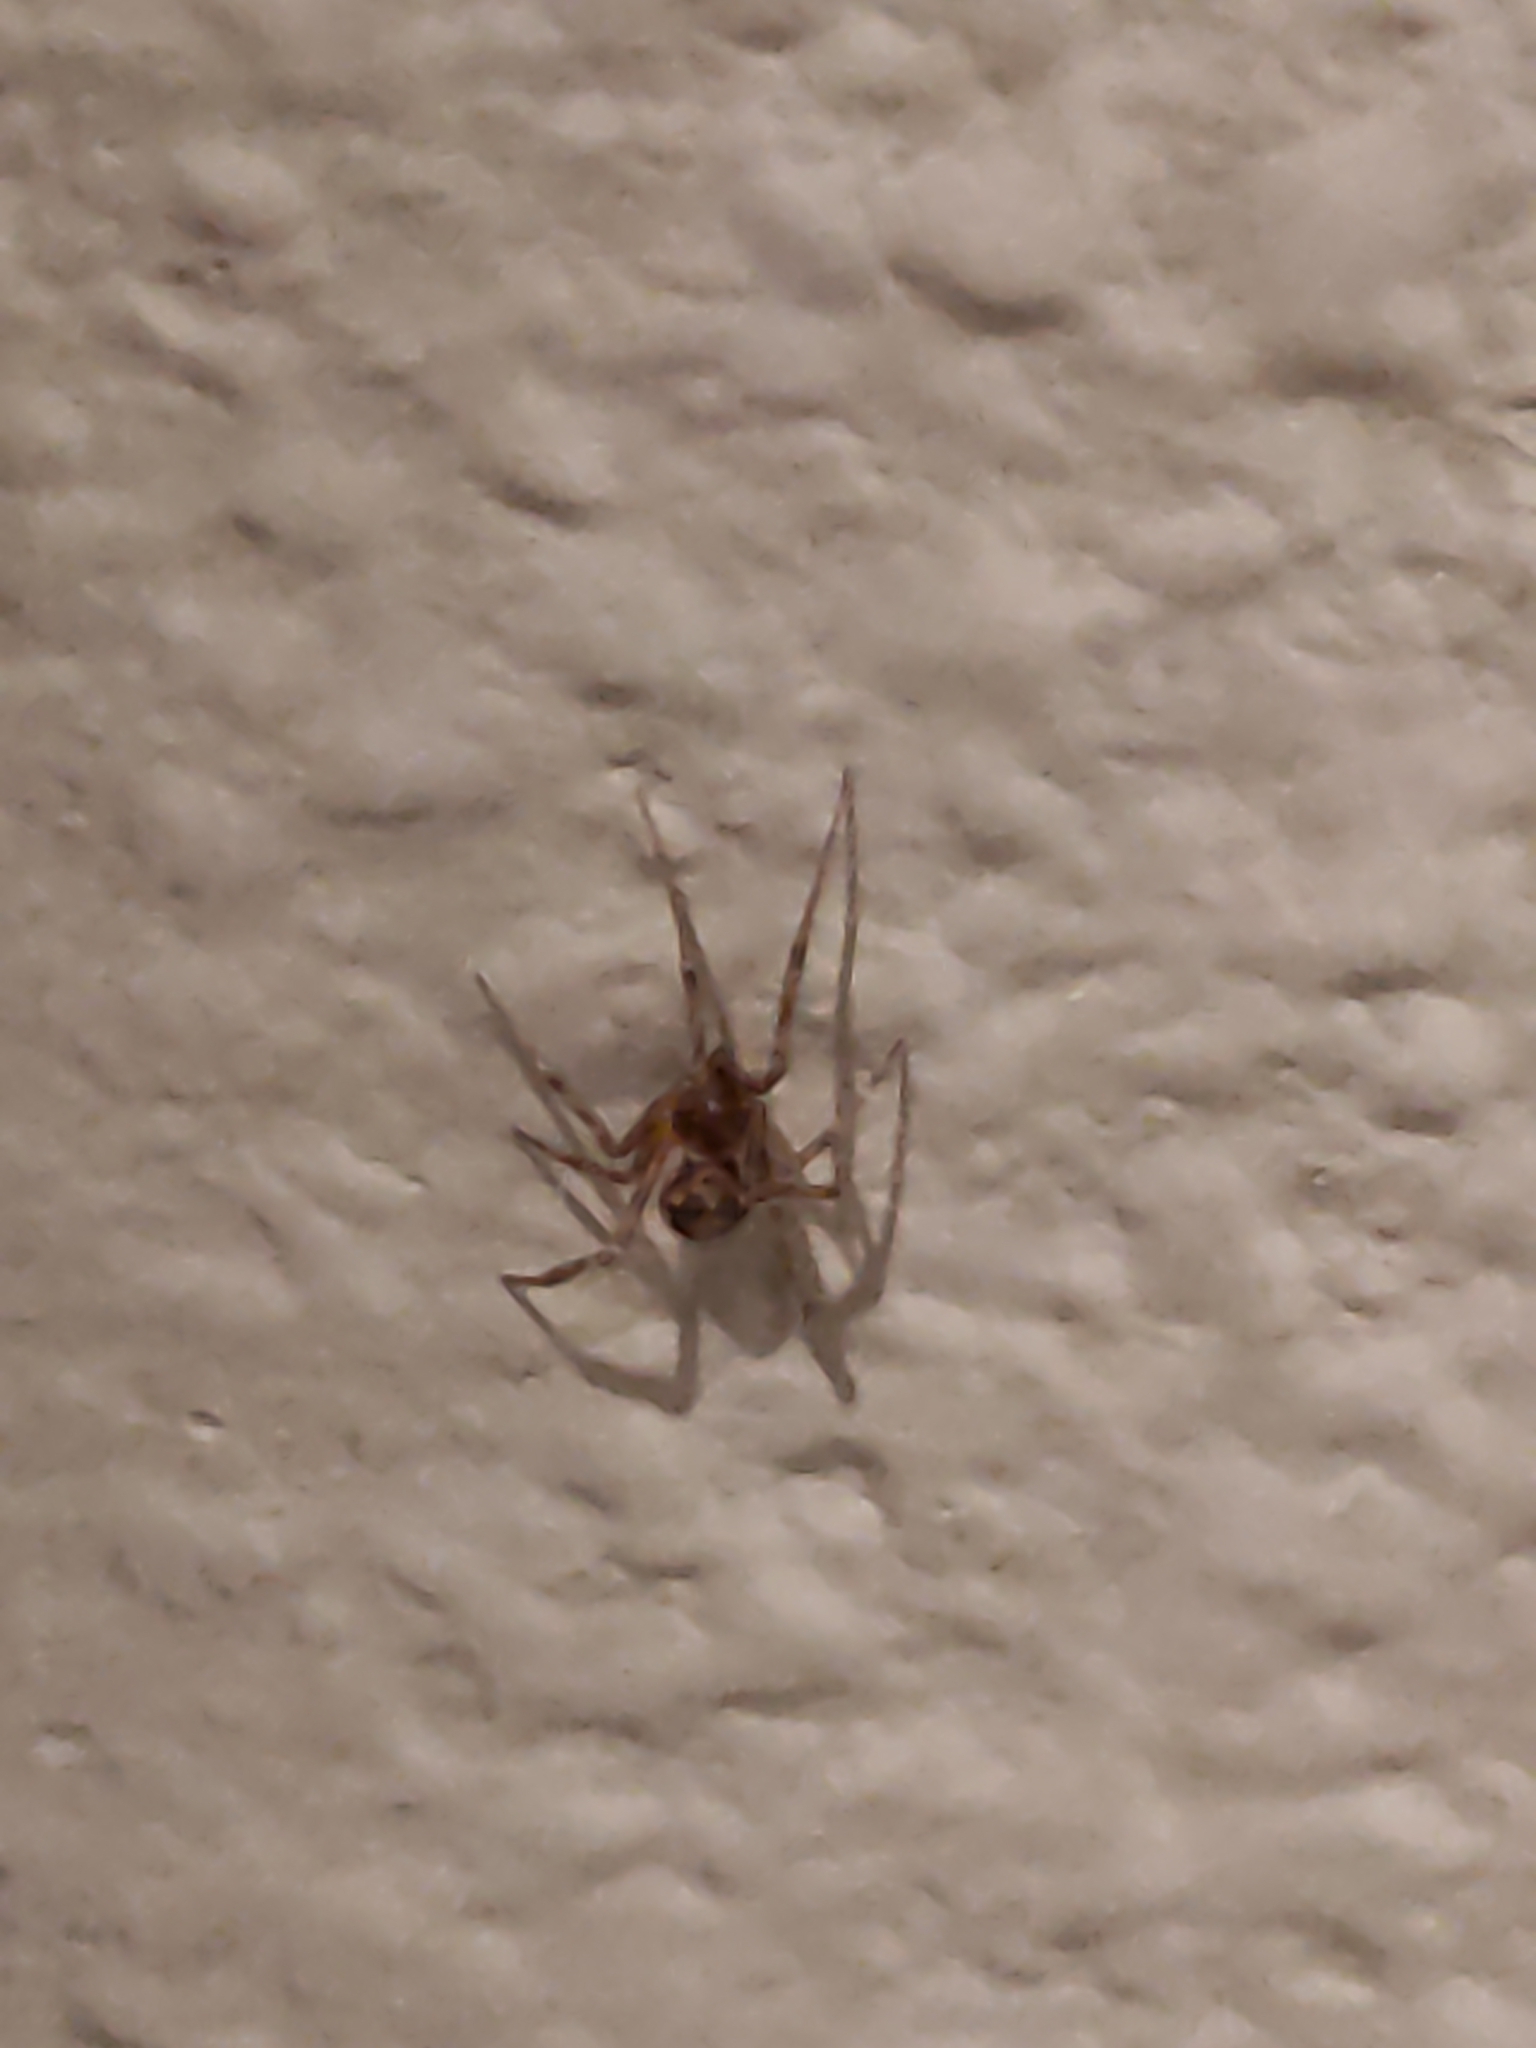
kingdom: Animalia
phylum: Arthropoda
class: Arachnida
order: Araneae
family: Theridiidae
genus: Steatoda
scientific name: Steatoda triangulosa
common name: Triangulate bud spider
